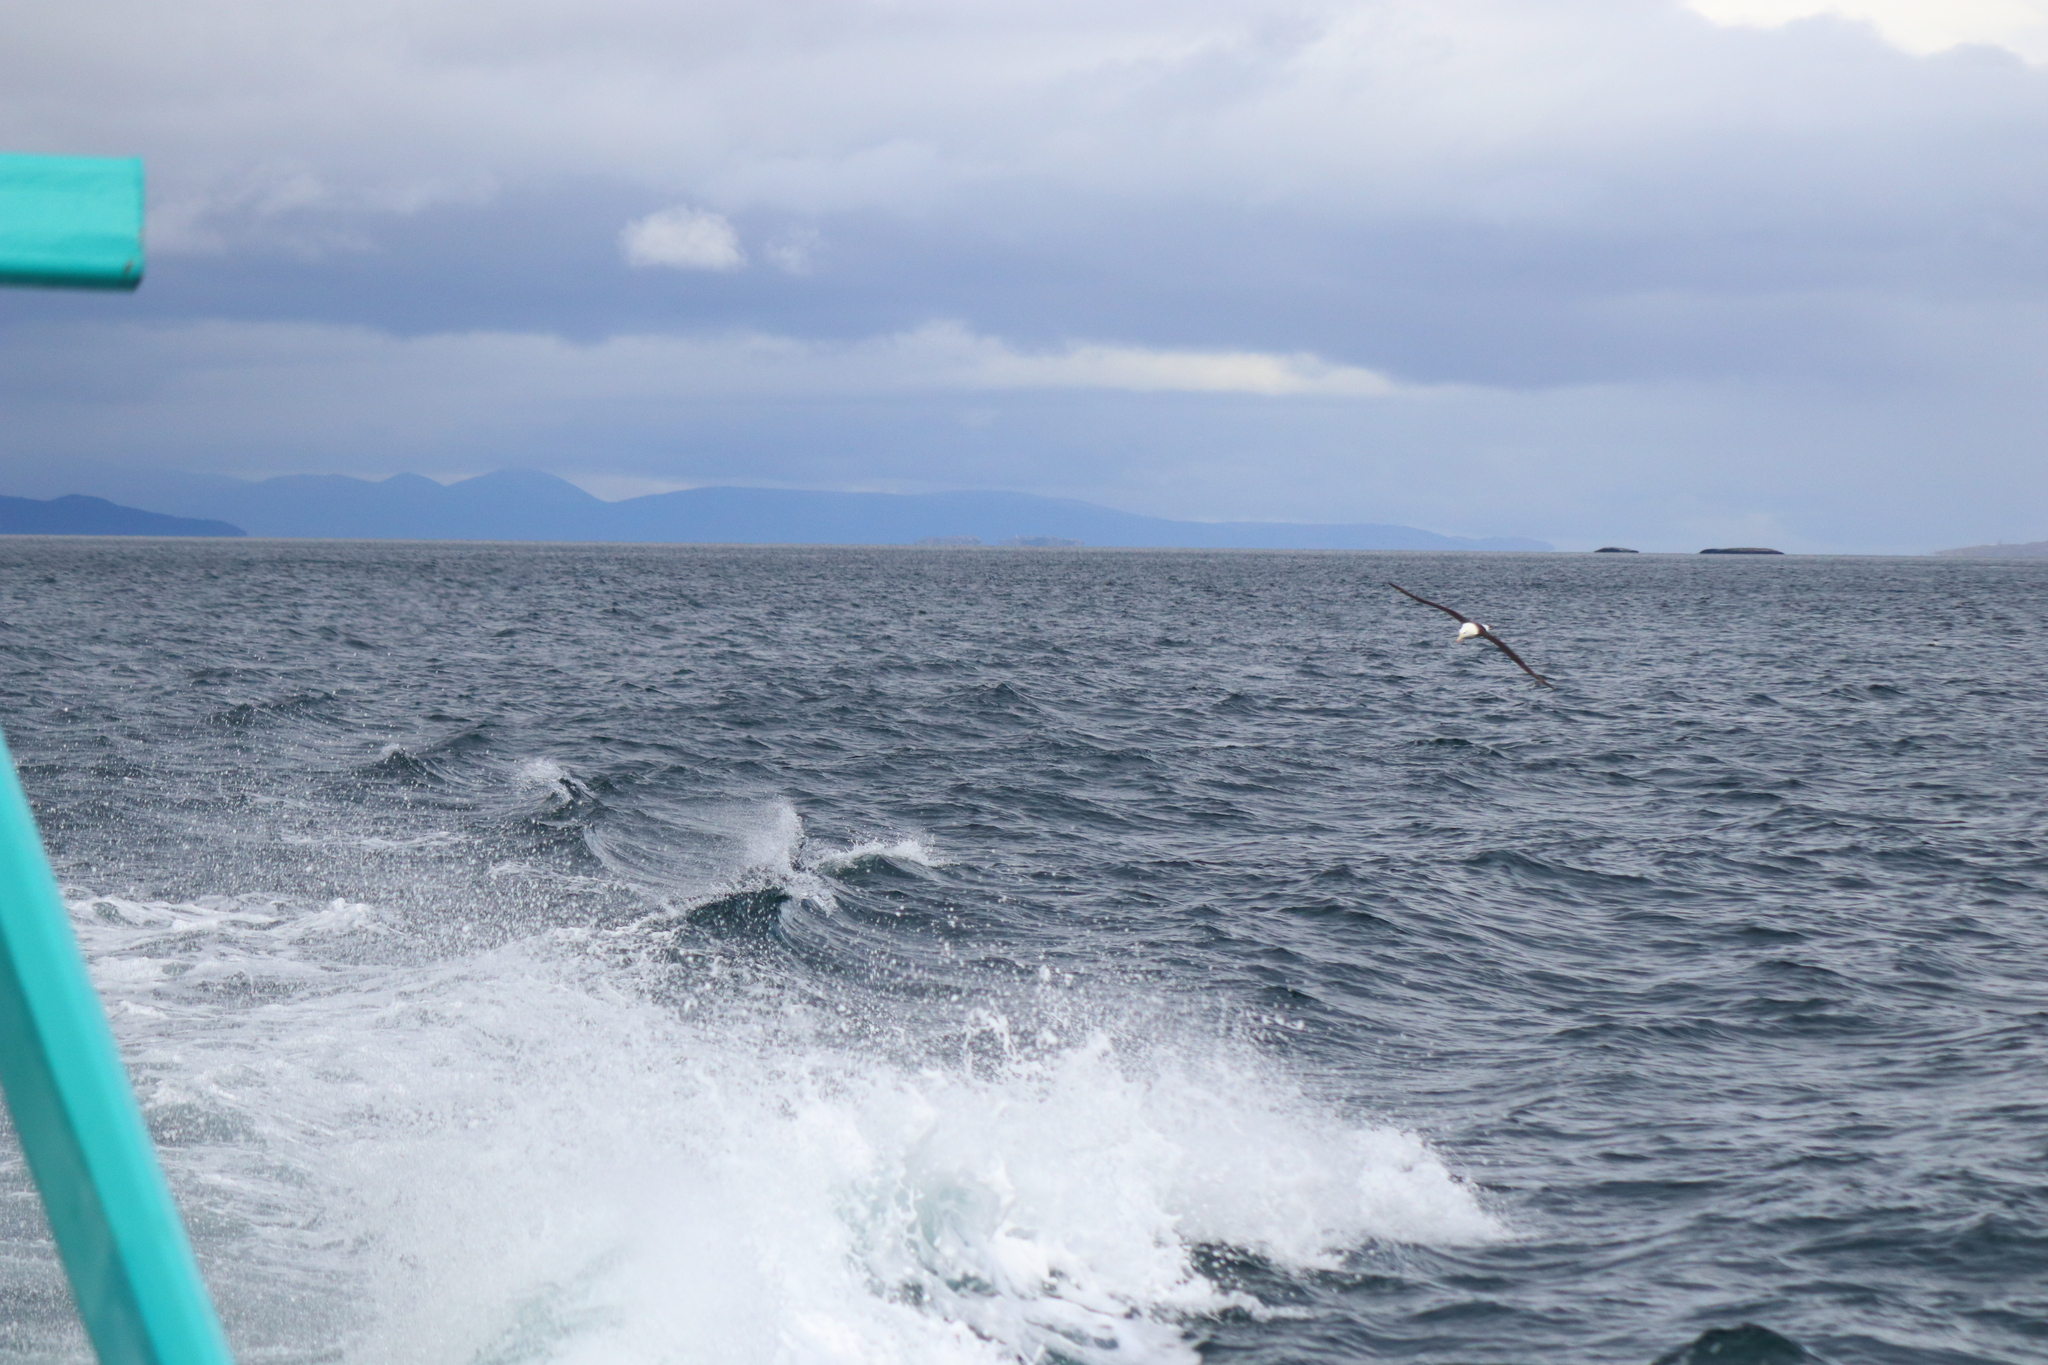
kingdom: Animalia
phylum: Chordata
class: Aves
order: Procellariiformes
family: Diomedeidae
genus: Thalassarche
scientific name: Thalassarche melanophris
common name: Black-browed albatross
